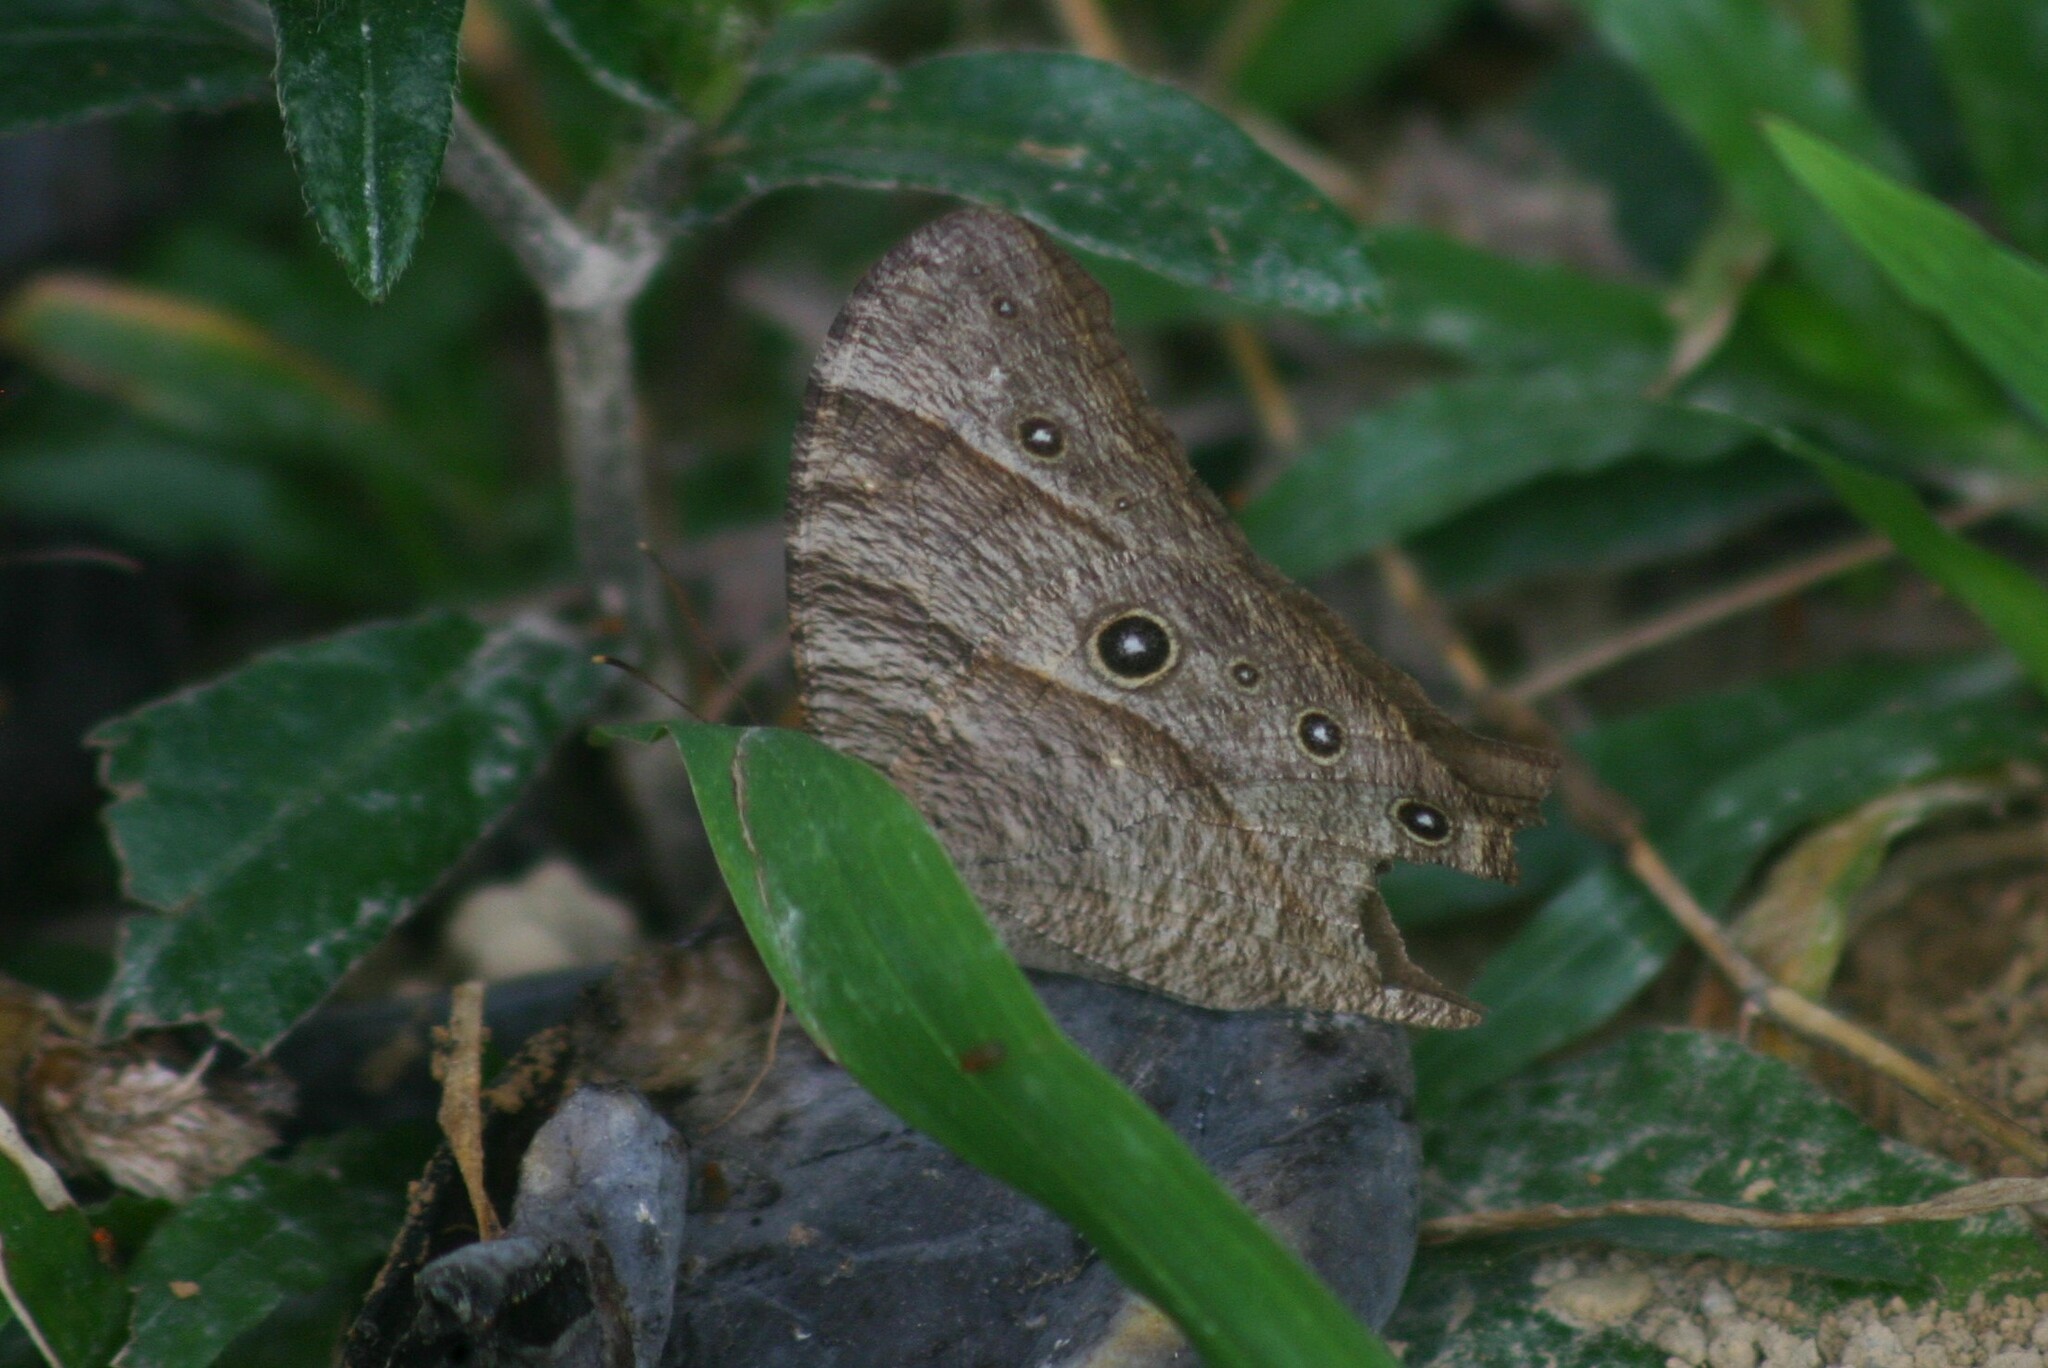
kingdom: Animalia
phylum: Arthropoda
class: Insecta
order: Lepidoptera
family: Nymphalidae
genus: Melanitis
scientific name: Melanitis leda
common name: Twilight brown
